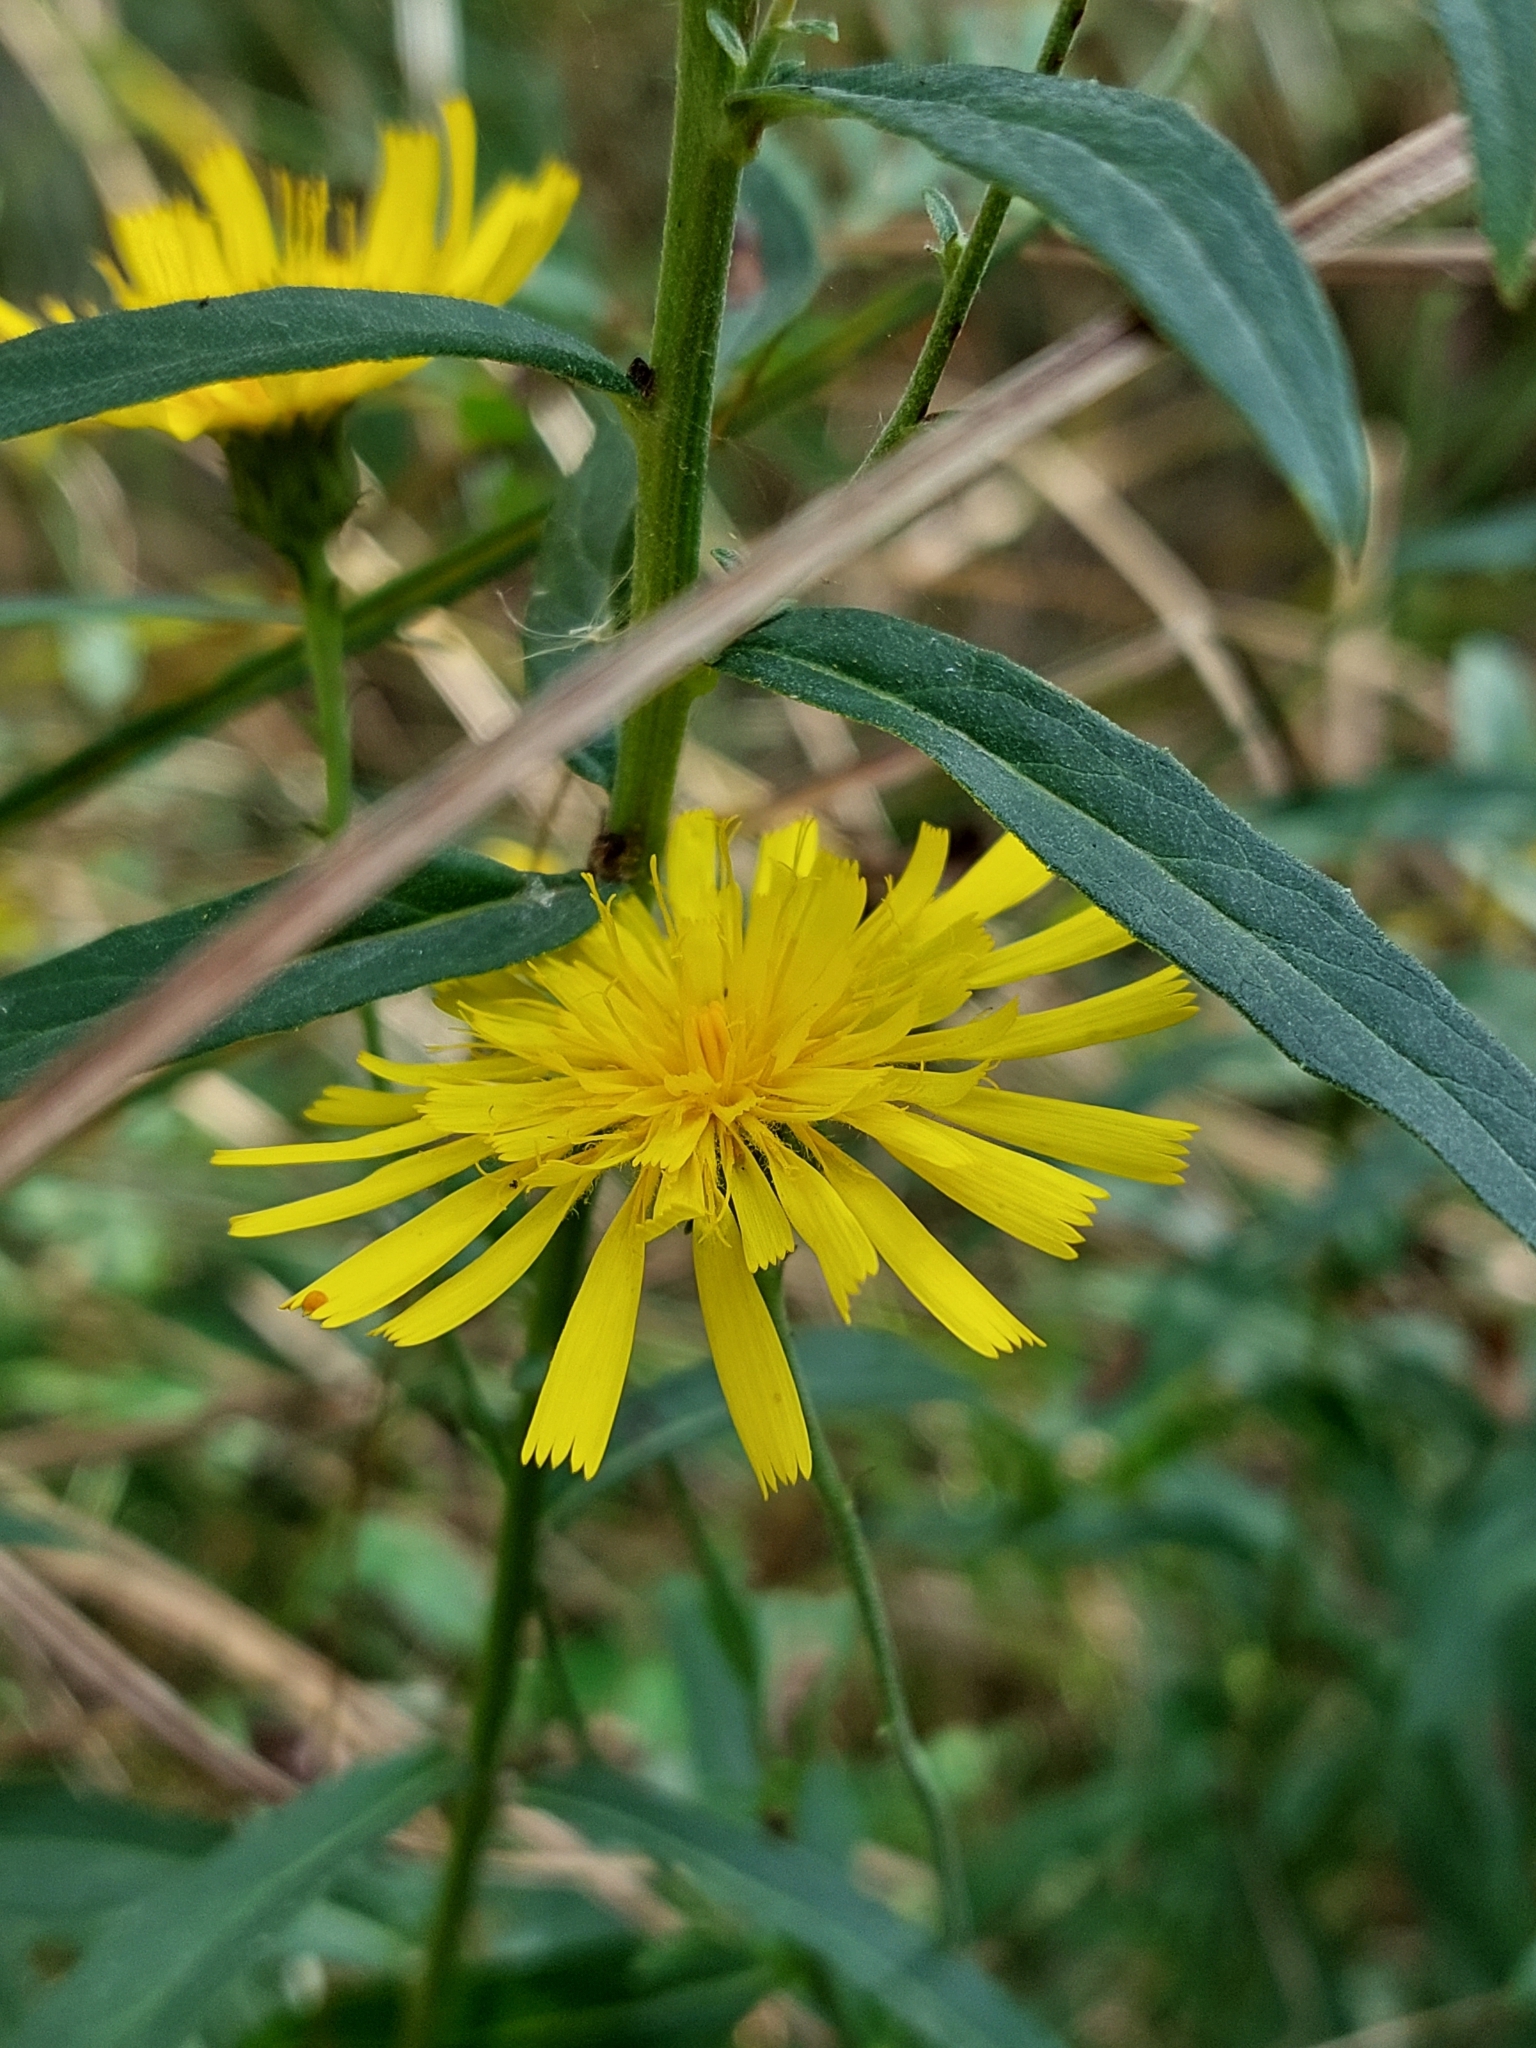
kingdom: Plantae
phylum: Tracheophyta
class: Magnoliopsida
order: Asterales
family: Asteraceae
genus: Hieracium
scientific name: Hieracium umbellatum
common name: Northern hawkweed
